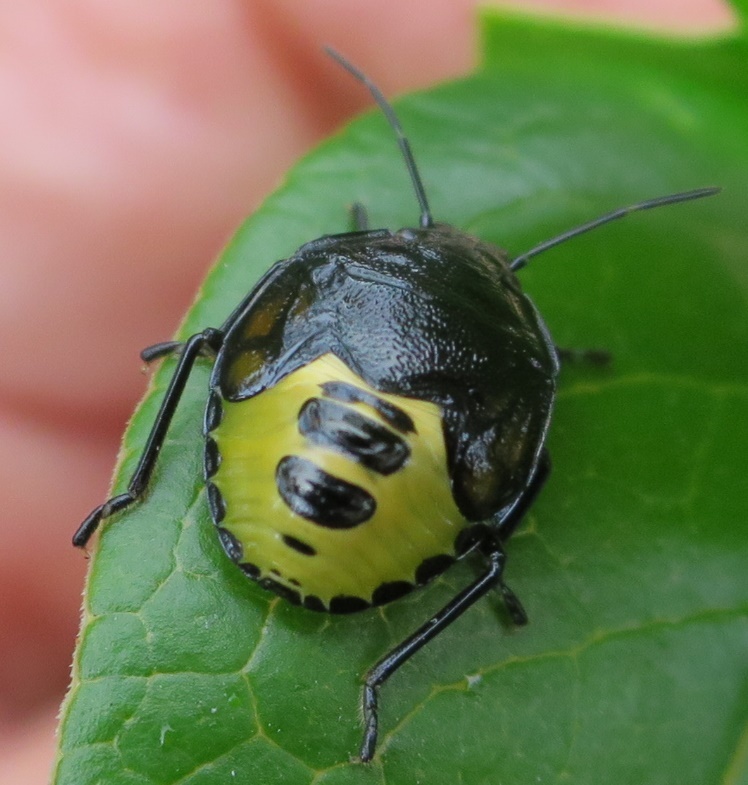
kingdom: Animalia
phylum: Arthropoda
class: Insecta
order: Hemiptera
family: Pentatomidae
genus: Glaucias
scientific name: Glaucias amyota
